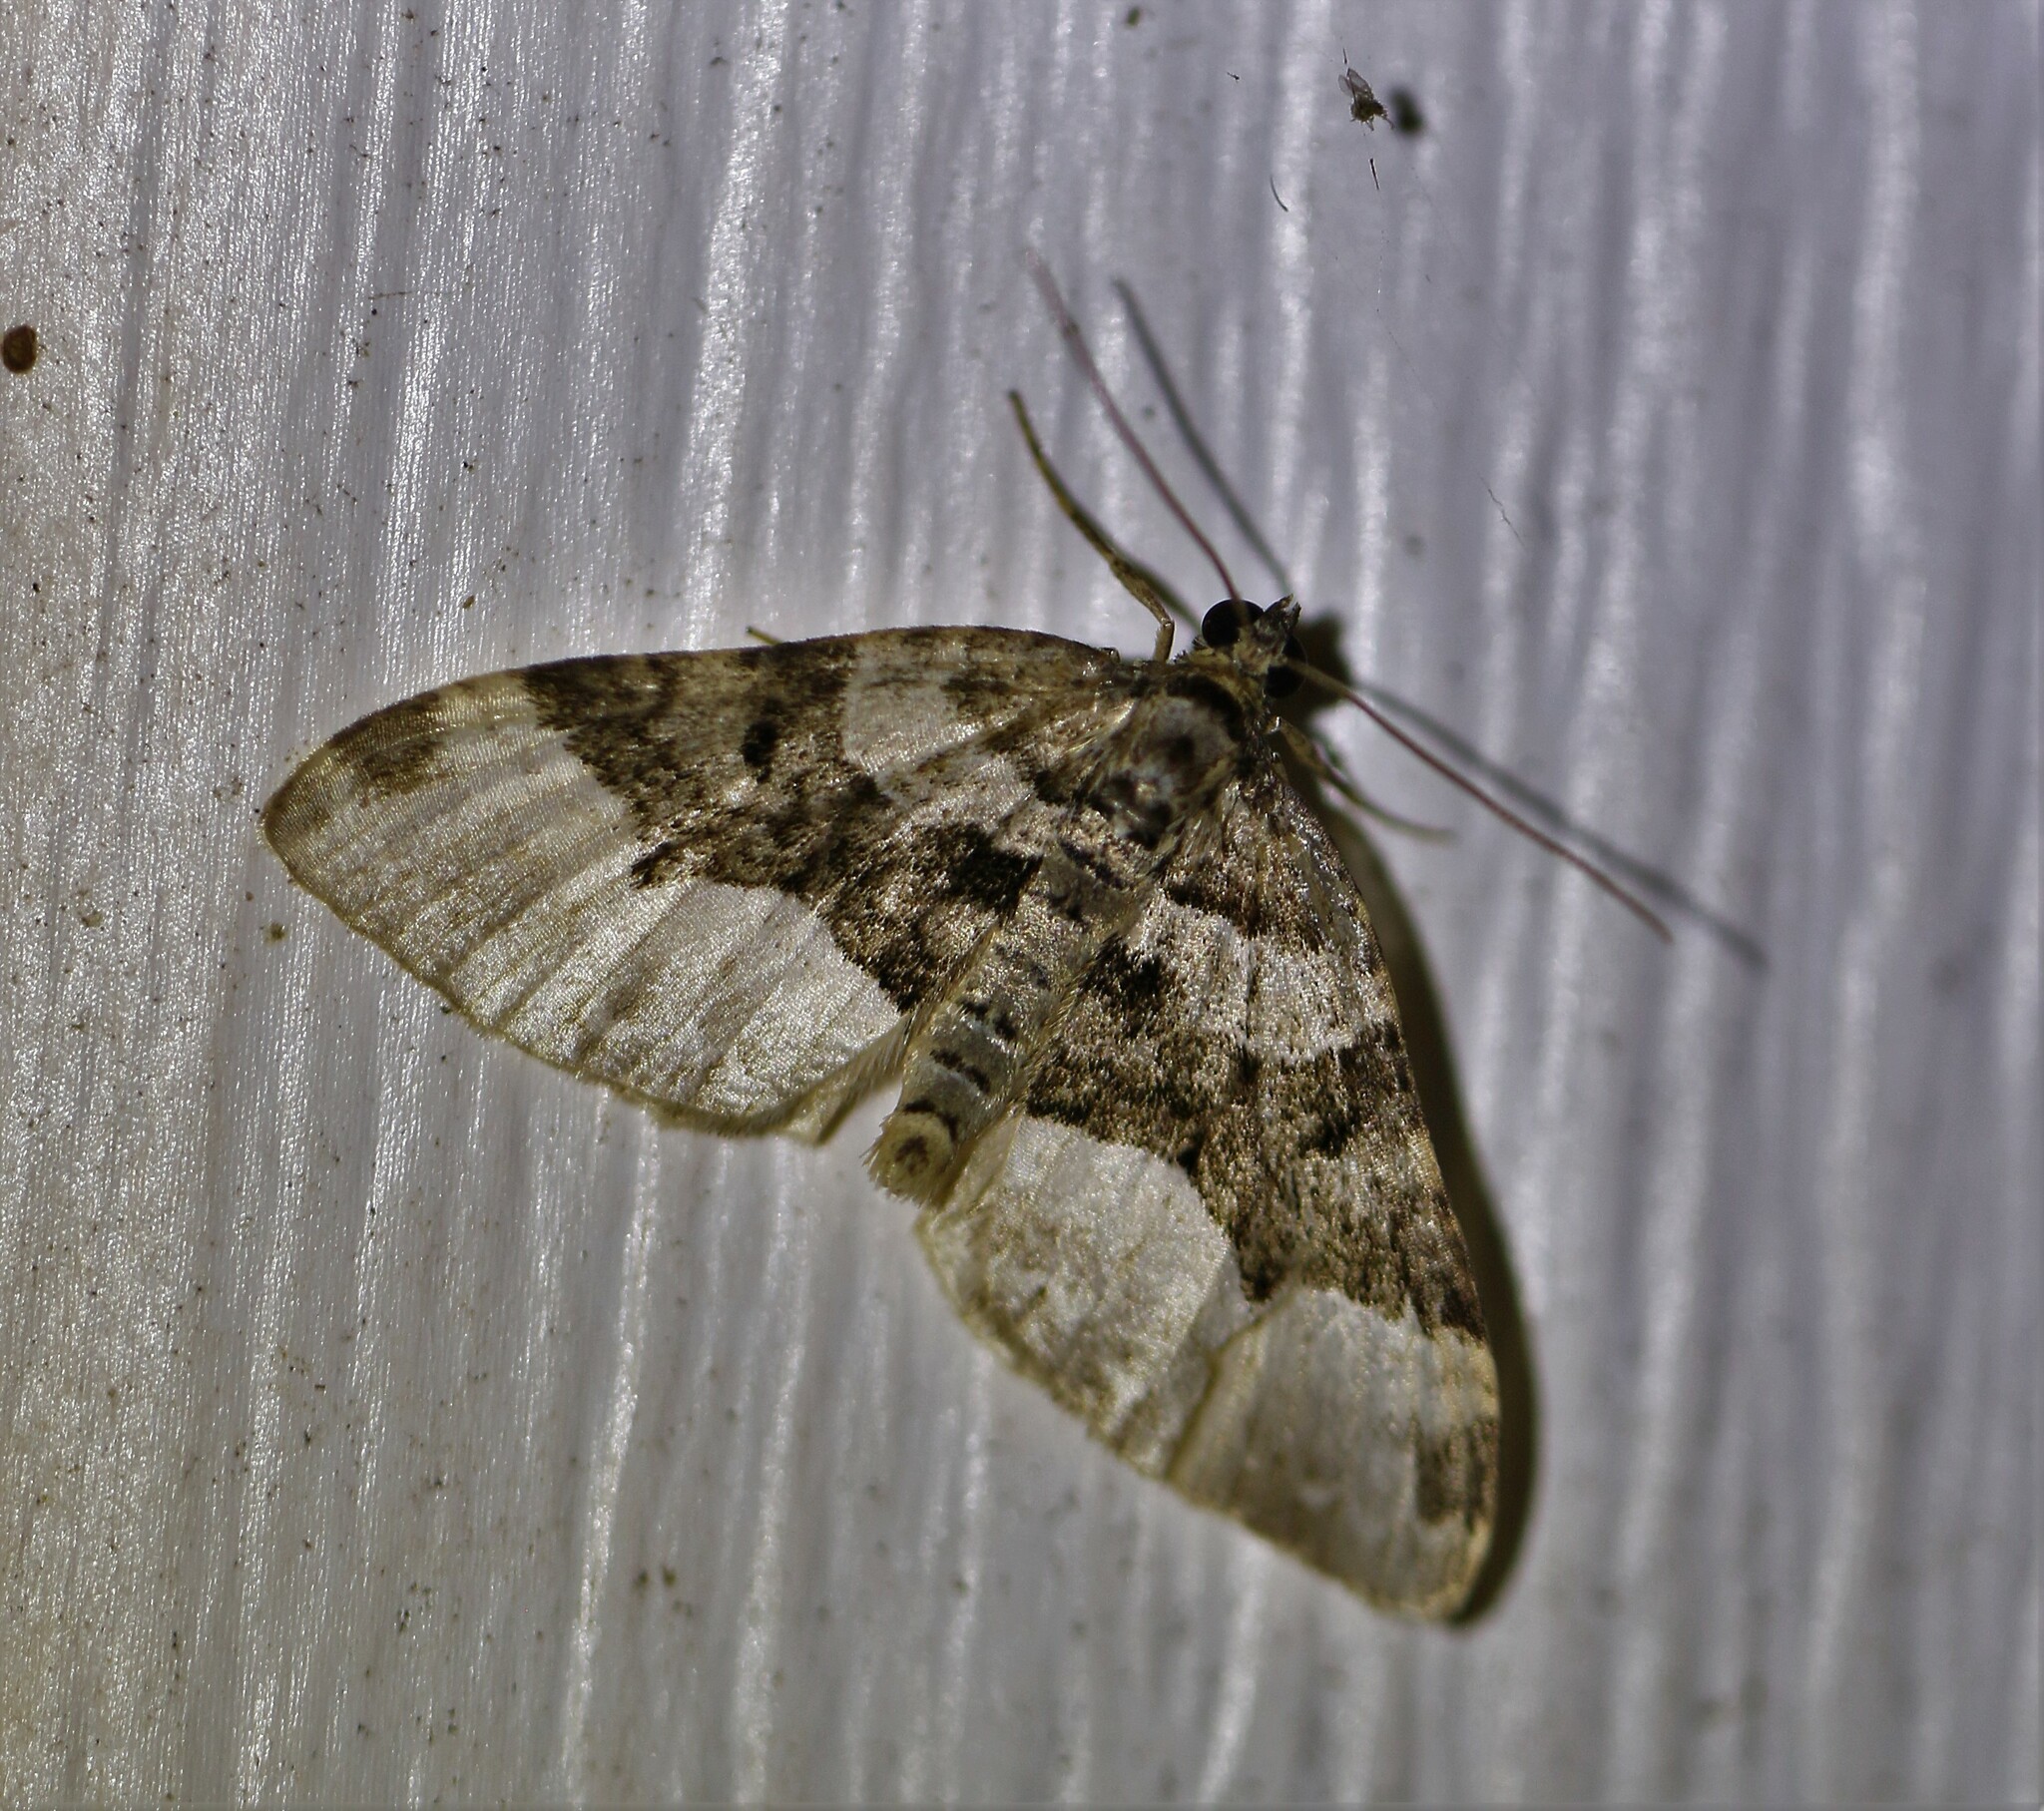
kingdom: Animalia
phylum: Arthropoda
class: Insecta
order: Lepidoptera
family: Geometridae
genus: Xanthorhoe
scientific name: Xanthorhoe lacustrata
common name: Toothed brown carpet
